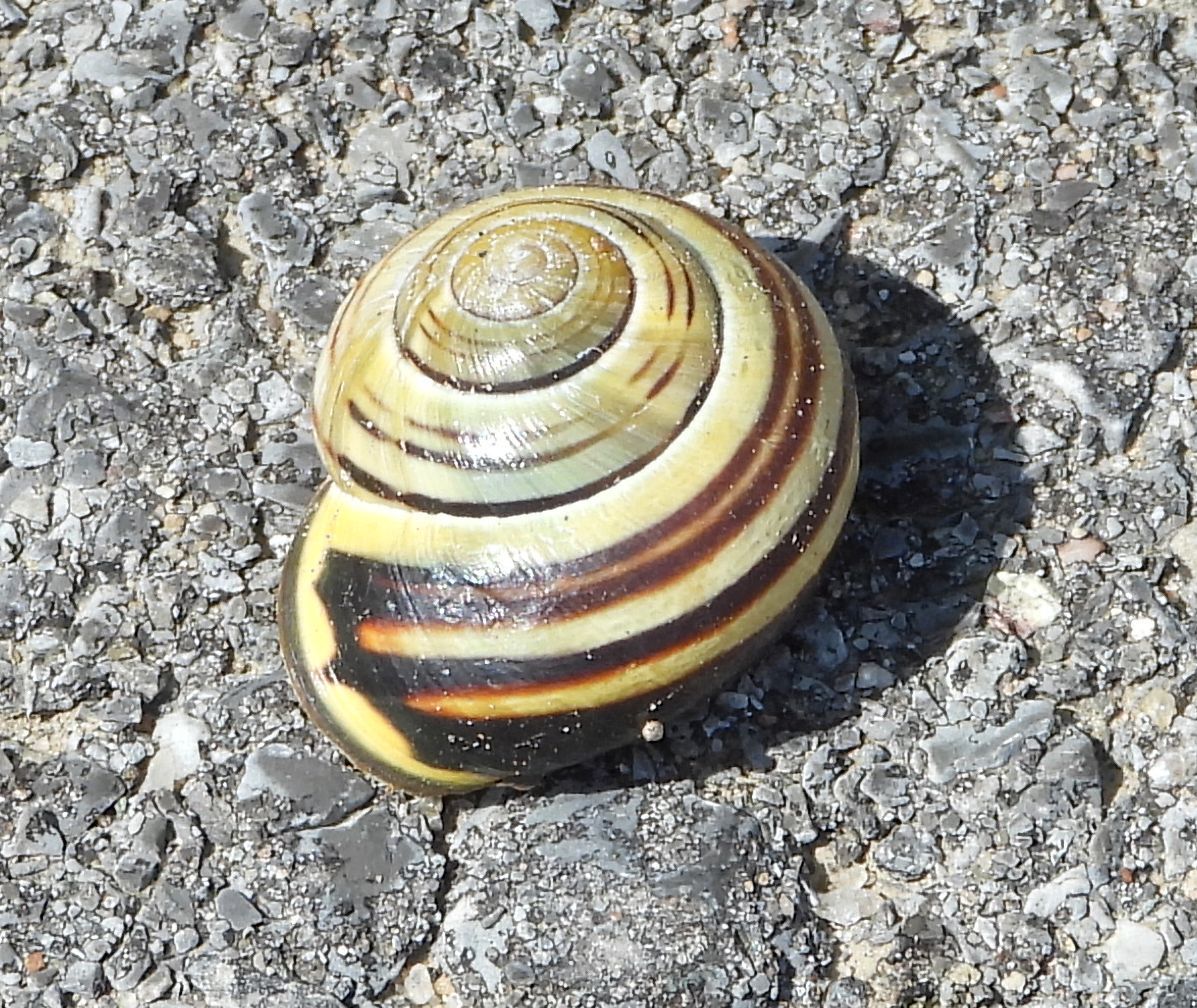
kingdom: Animalia
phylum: Mollusca
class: Gastropoda
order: Stylommatophora
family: Helicidae
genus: Cepaea
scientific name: Cepaea nemoralis
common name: Grovesnail
